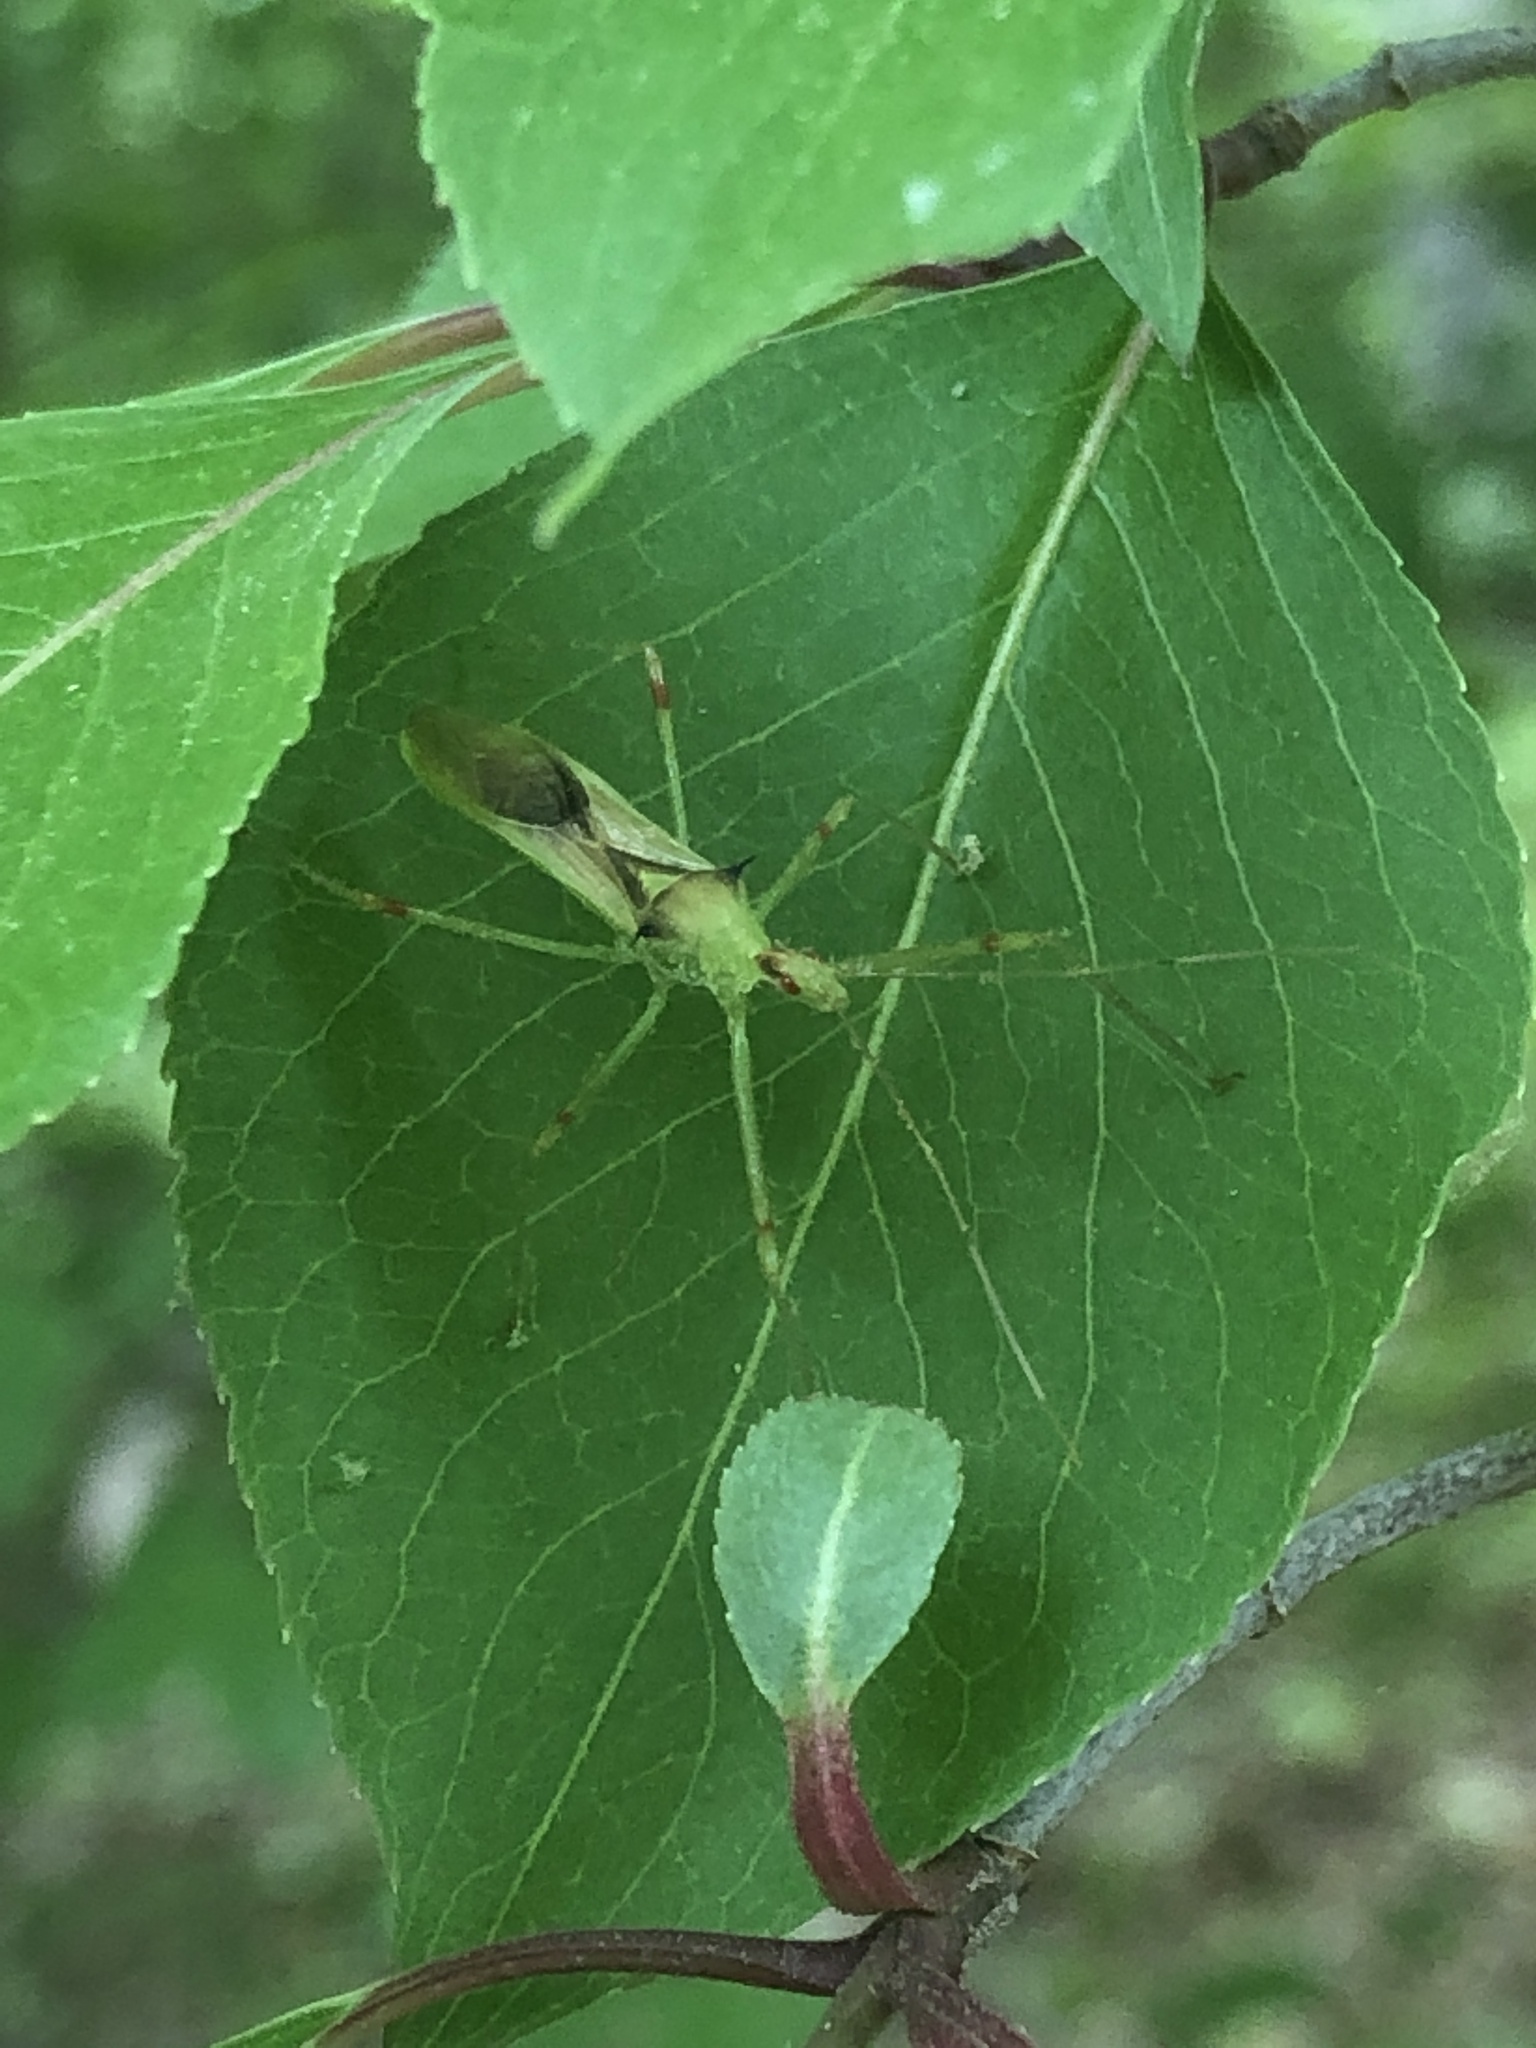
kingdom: Animalia
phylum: Arthropoda
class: Insecta
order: Hemiptera
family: Reduviidae
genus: Zelus
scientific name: Zelus luridus
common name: Pale green assassin bug
